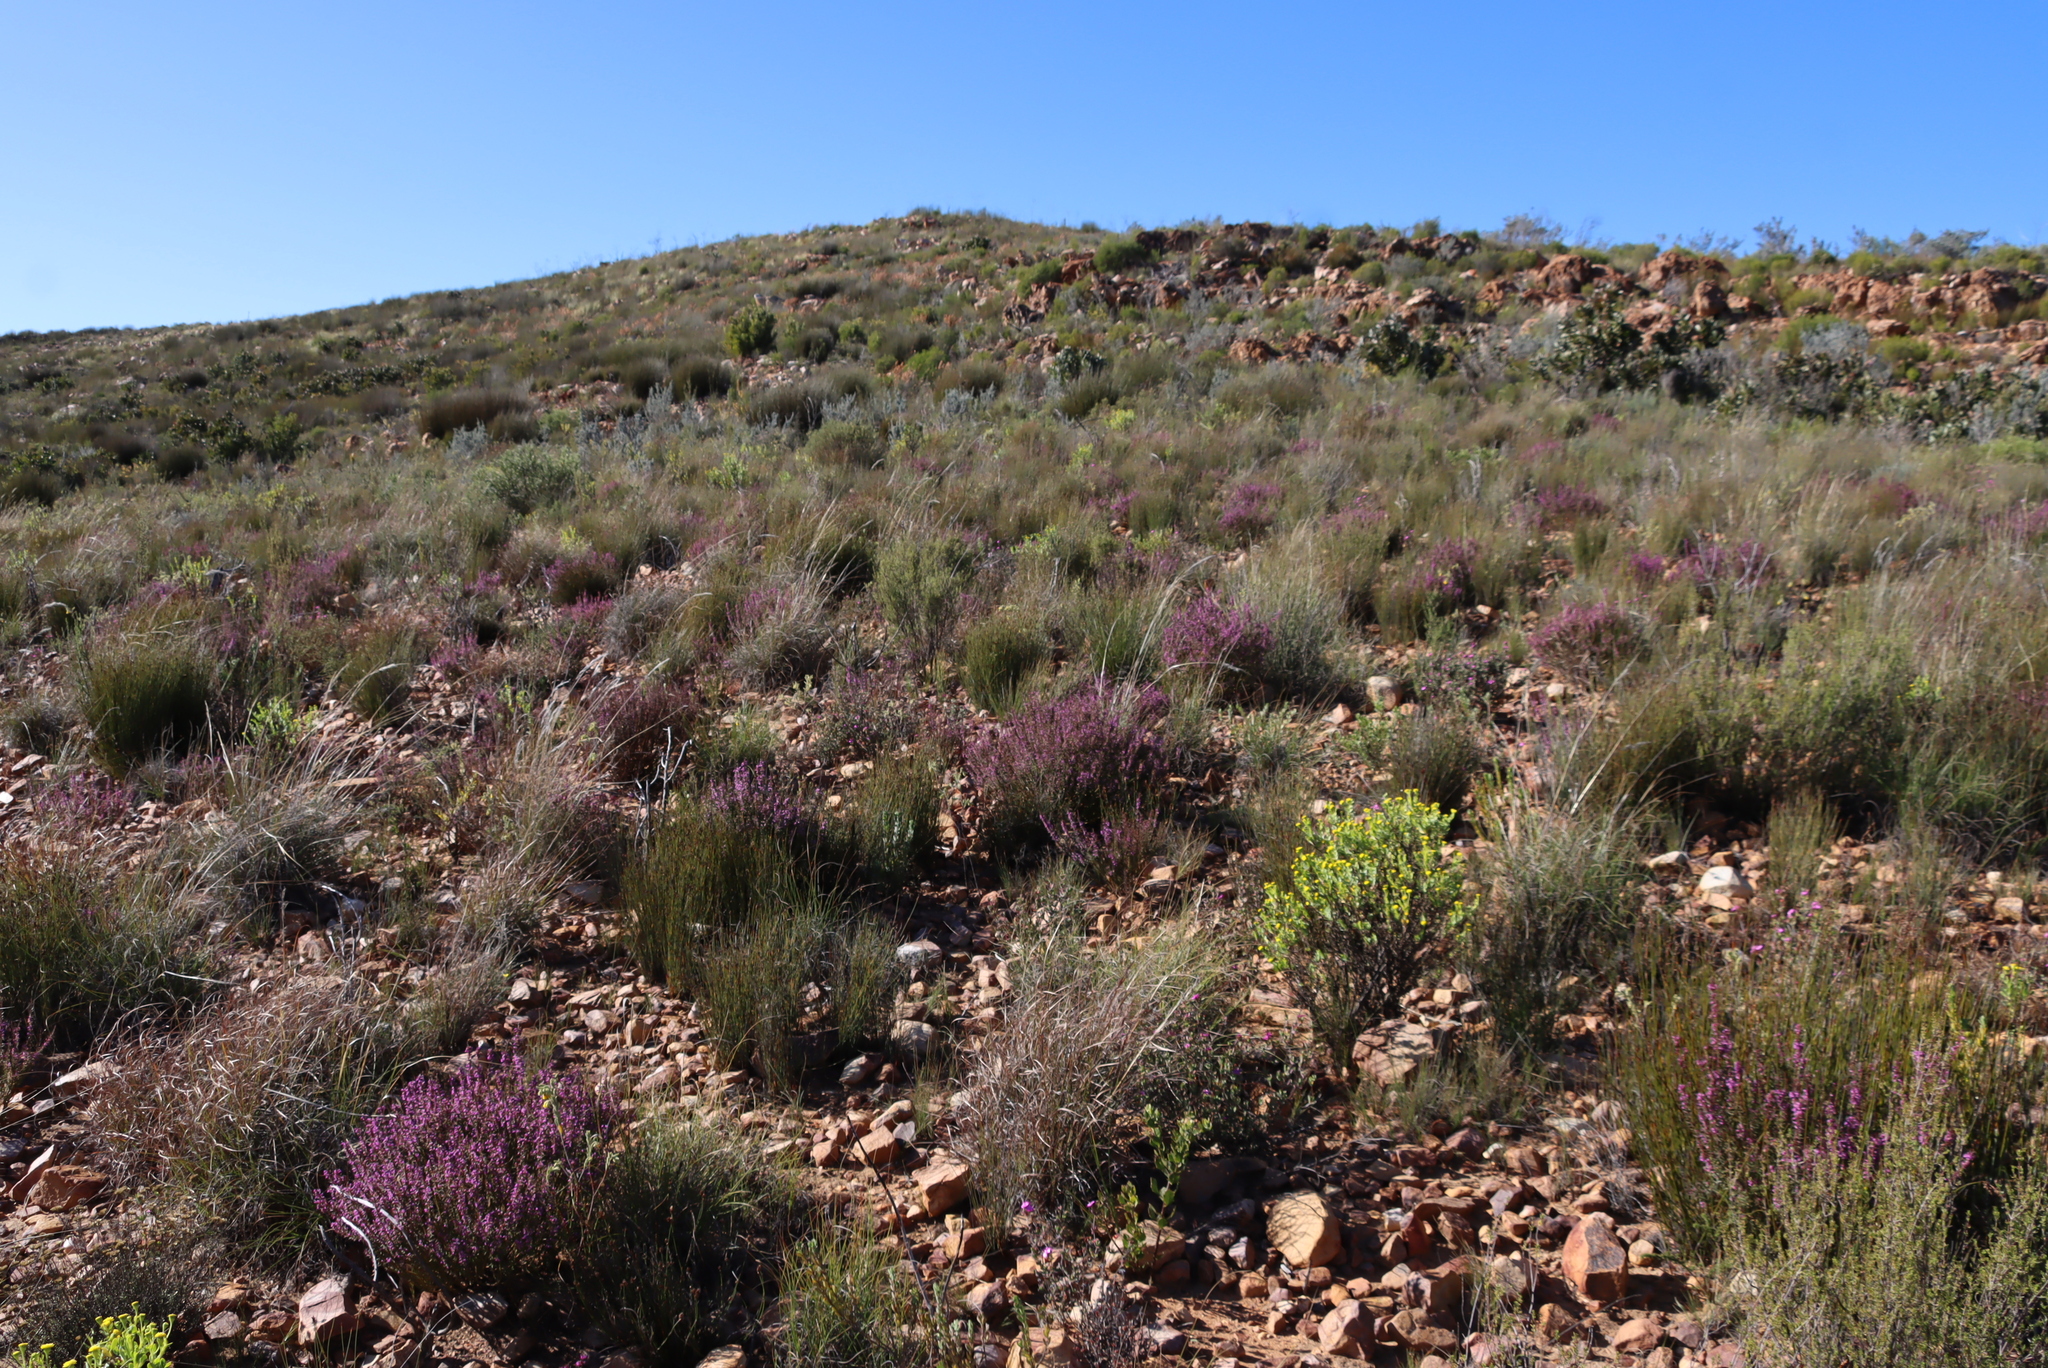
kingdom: Plantae
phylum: Tracheophyta
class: Magnoliopsida
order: Fabales
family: Polygalaceae
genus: Muraltia
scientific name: Muraltia juniperifolia
